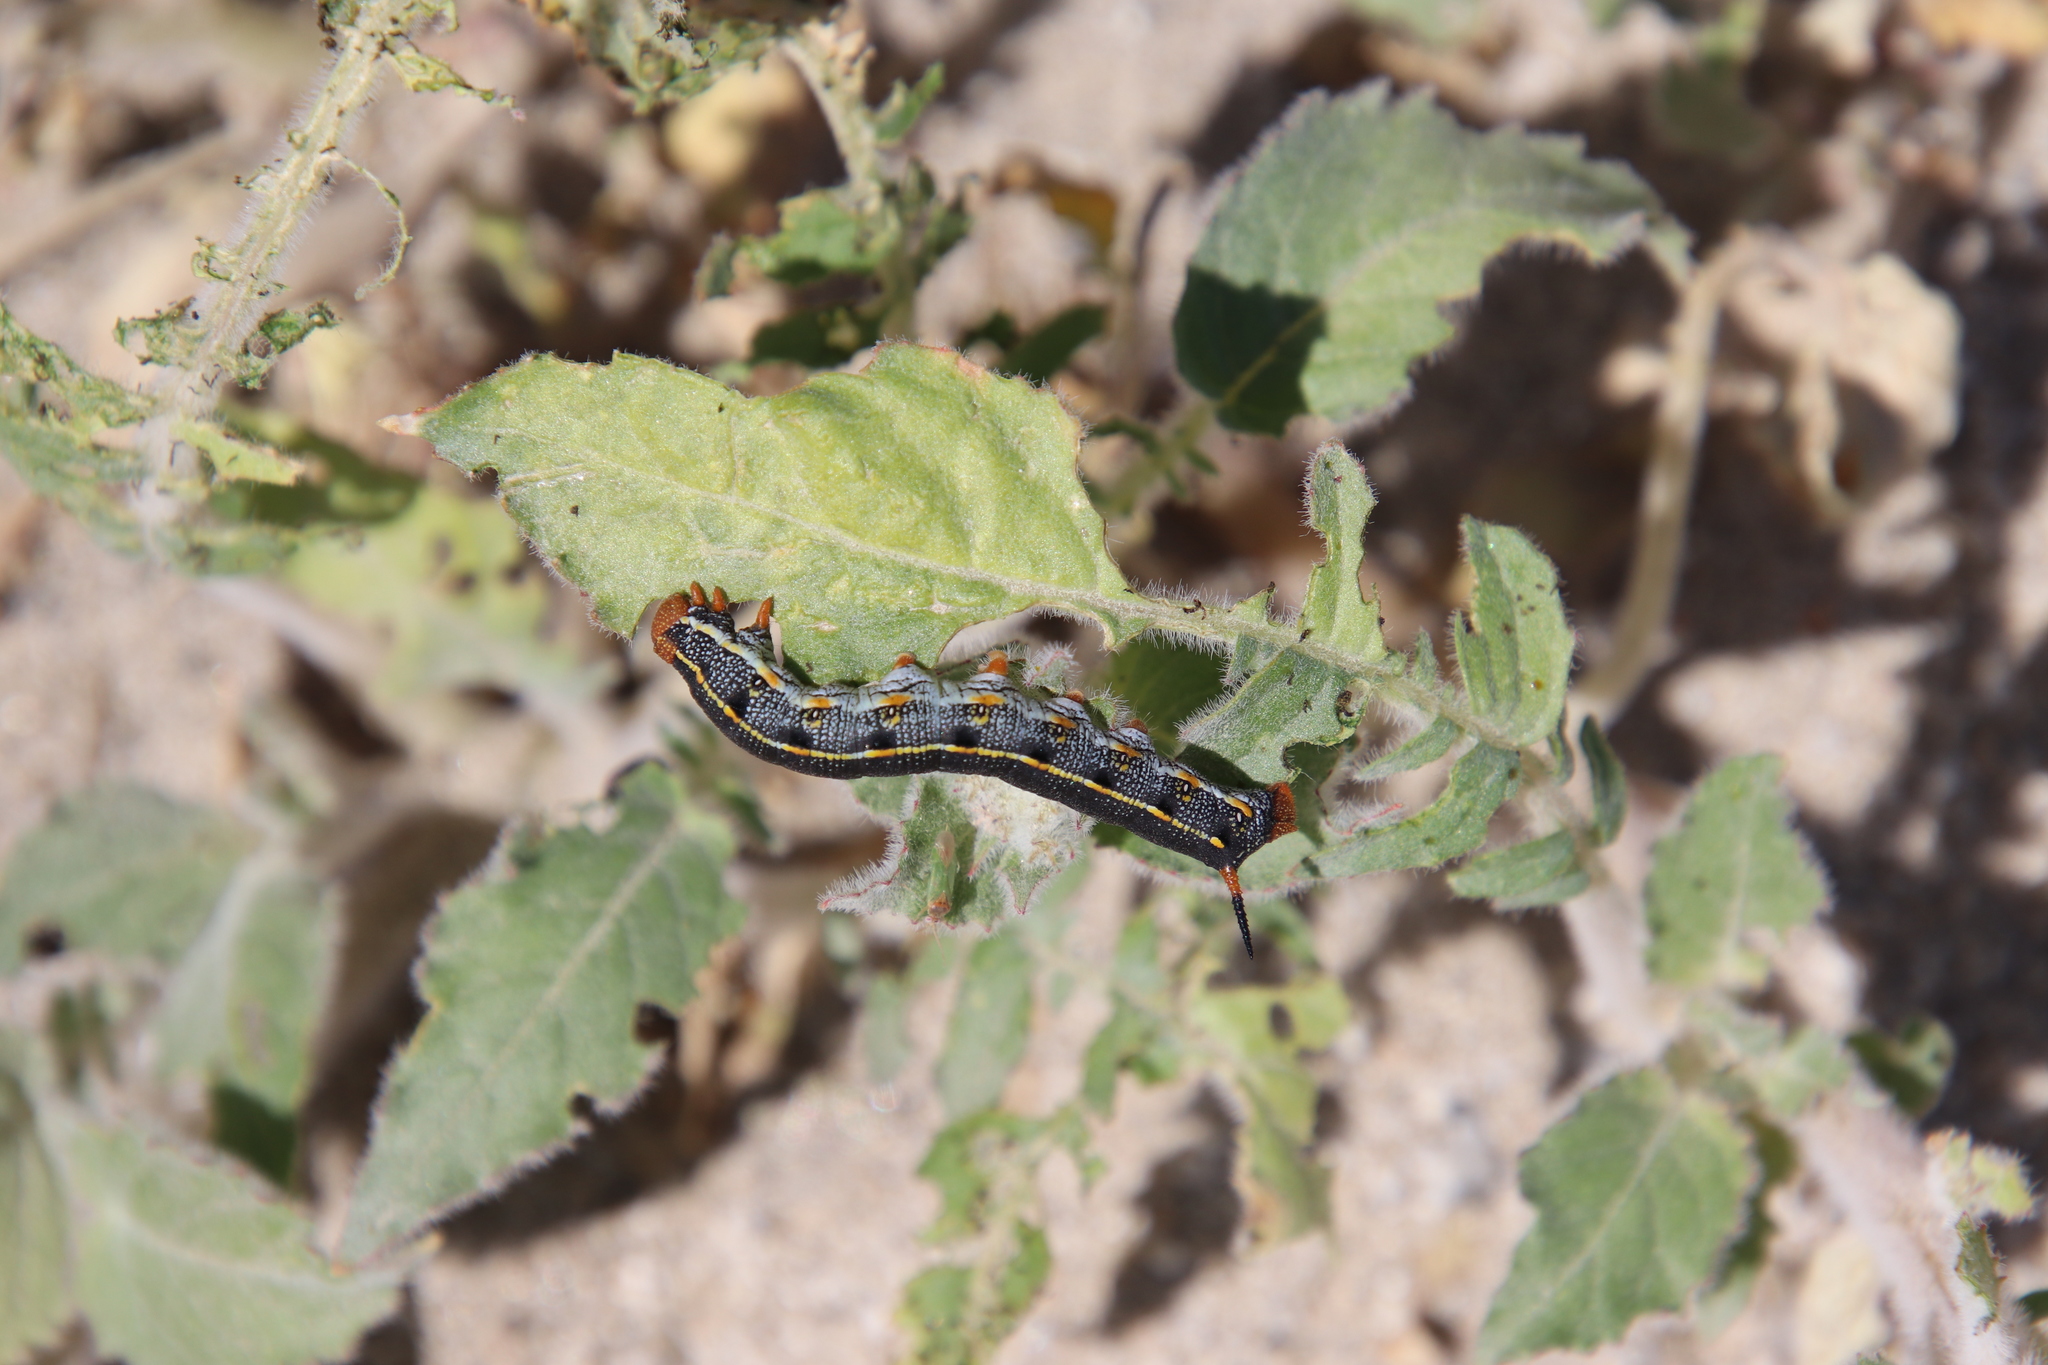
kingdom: Plantae
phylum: Tracheophyta
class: Magnoliopsida
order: Myrtales
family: Onagraceae
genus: Chylismia
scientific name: Chylismia claviformis
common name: Browneyes
